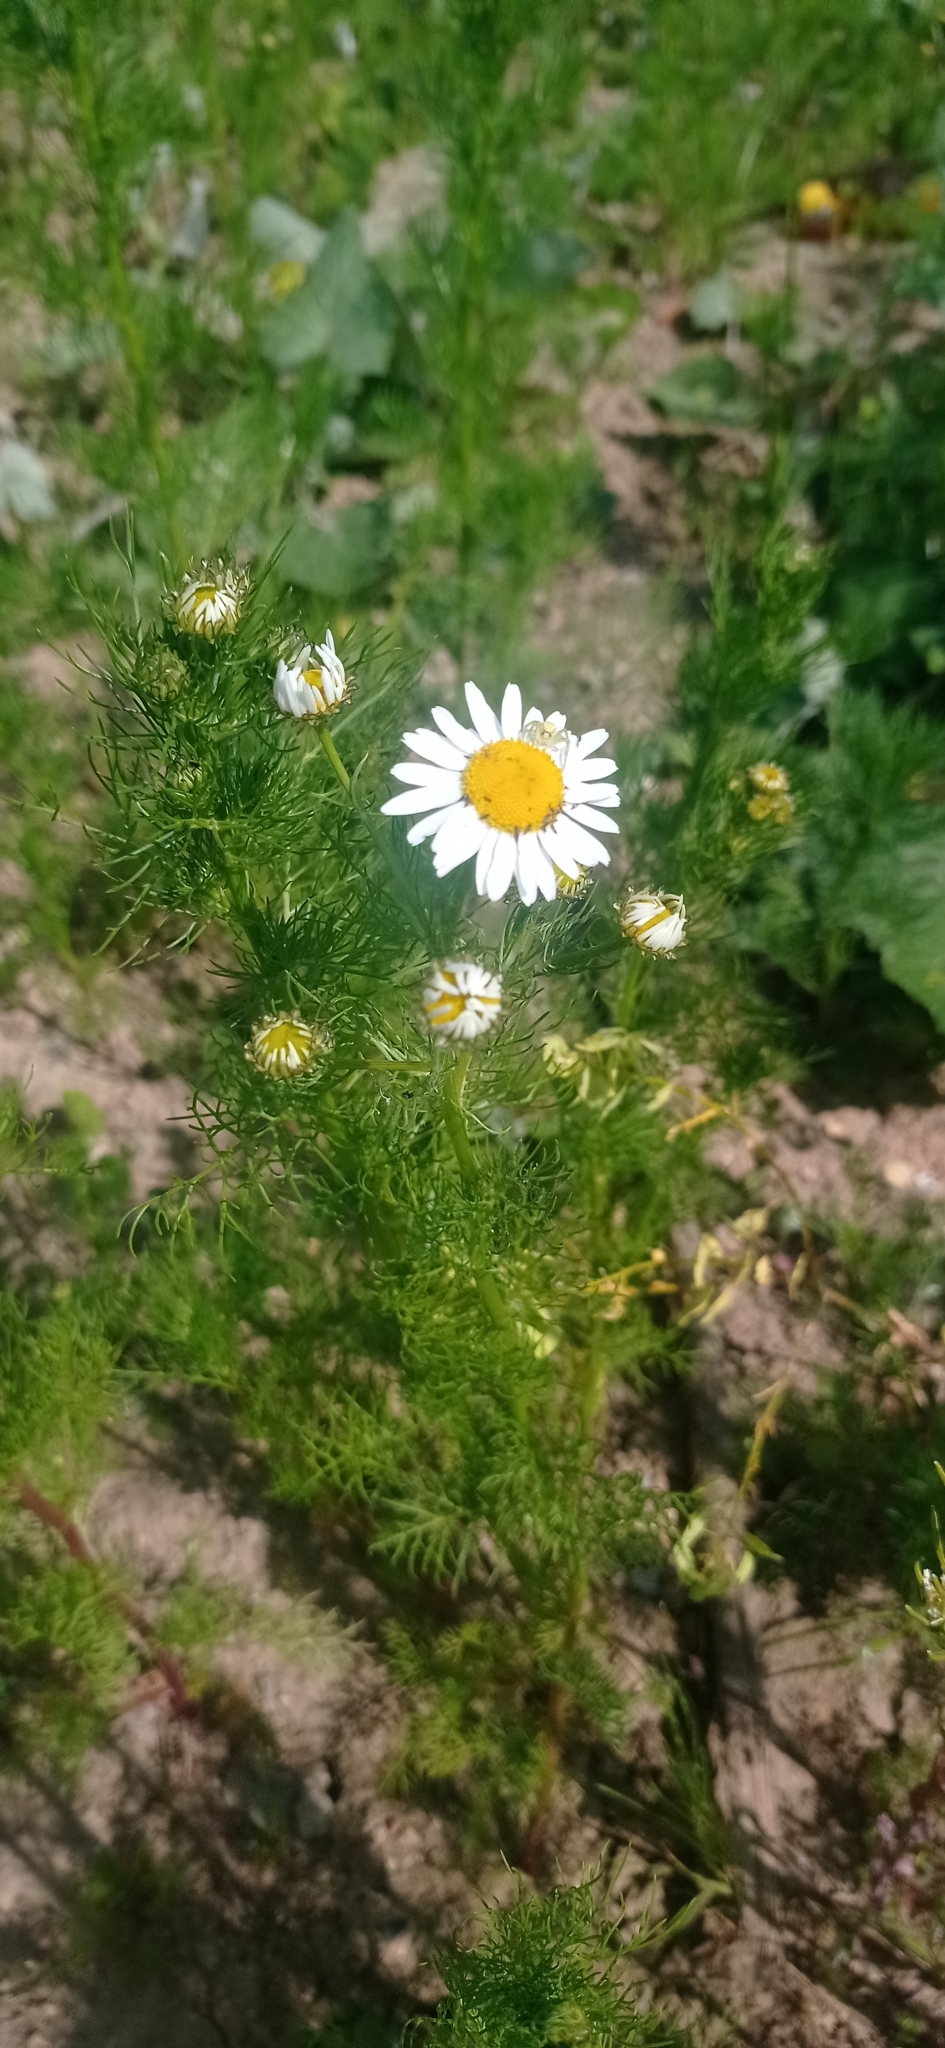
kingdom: Plantae
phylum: Tracheophyta
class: Magnoliopsida
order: Asterales
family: Asteraceae
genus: Tripleurospermum
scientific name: Tripleurospermum inodorum
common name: Scentless mayweed
